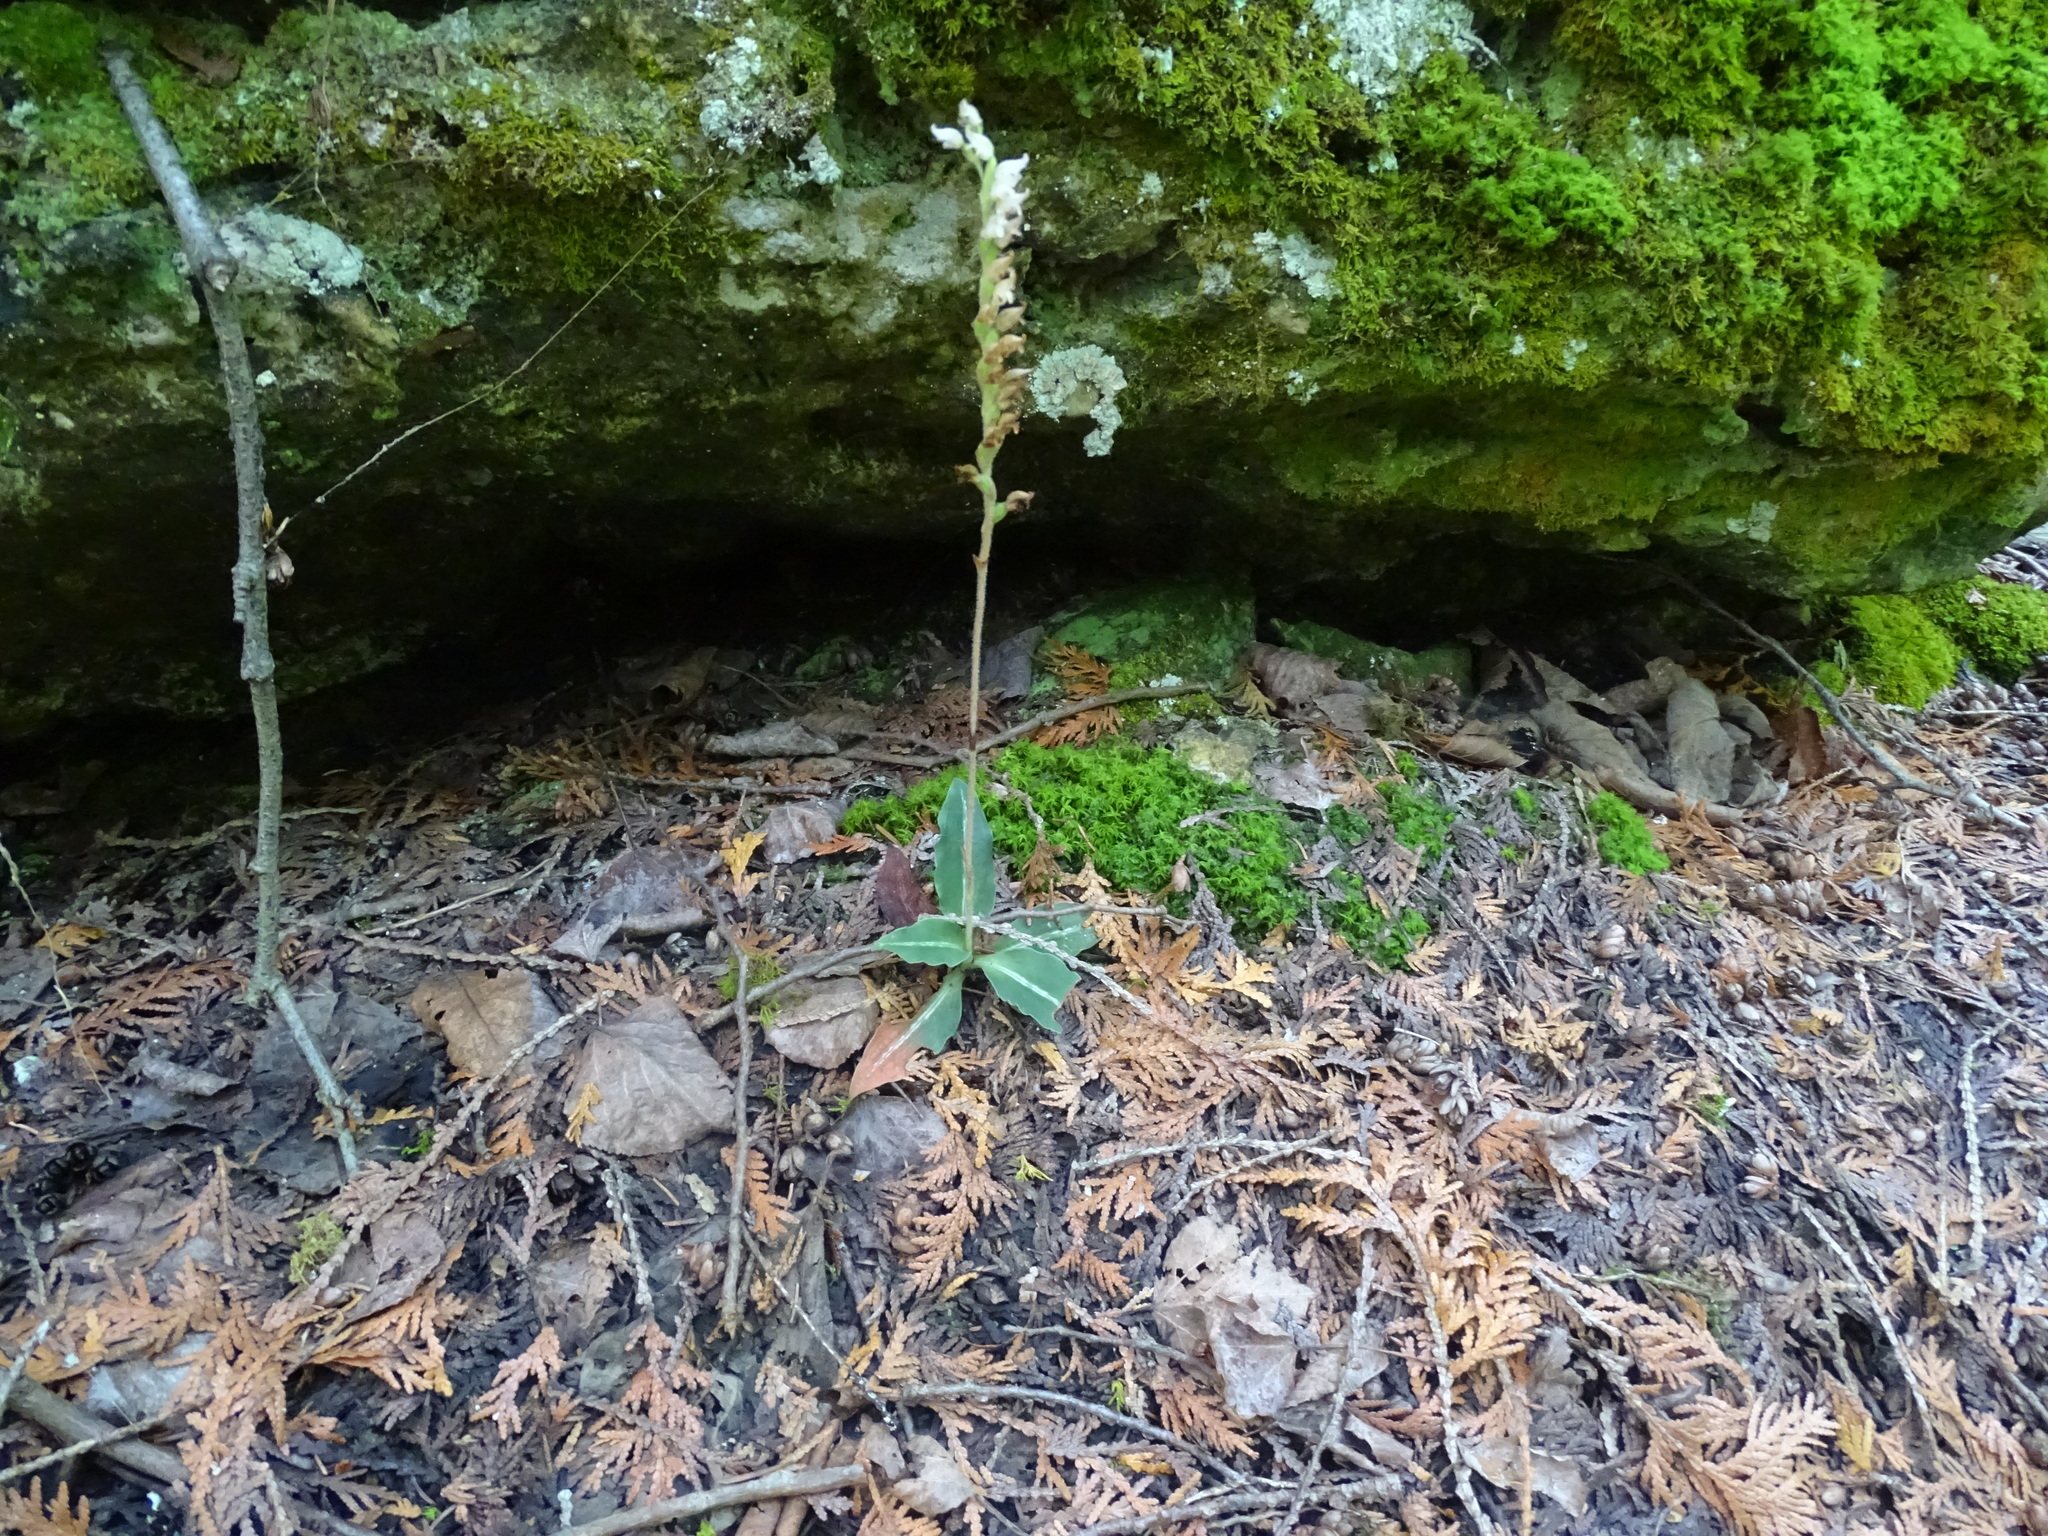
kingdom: Plantae
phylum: Tracheophyta
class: Liliopsida
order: Asparagales
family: Orchidaceae
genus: Goodyera
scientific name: Goodyera oblongifolia
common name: Giant rattlesnake-plantain
